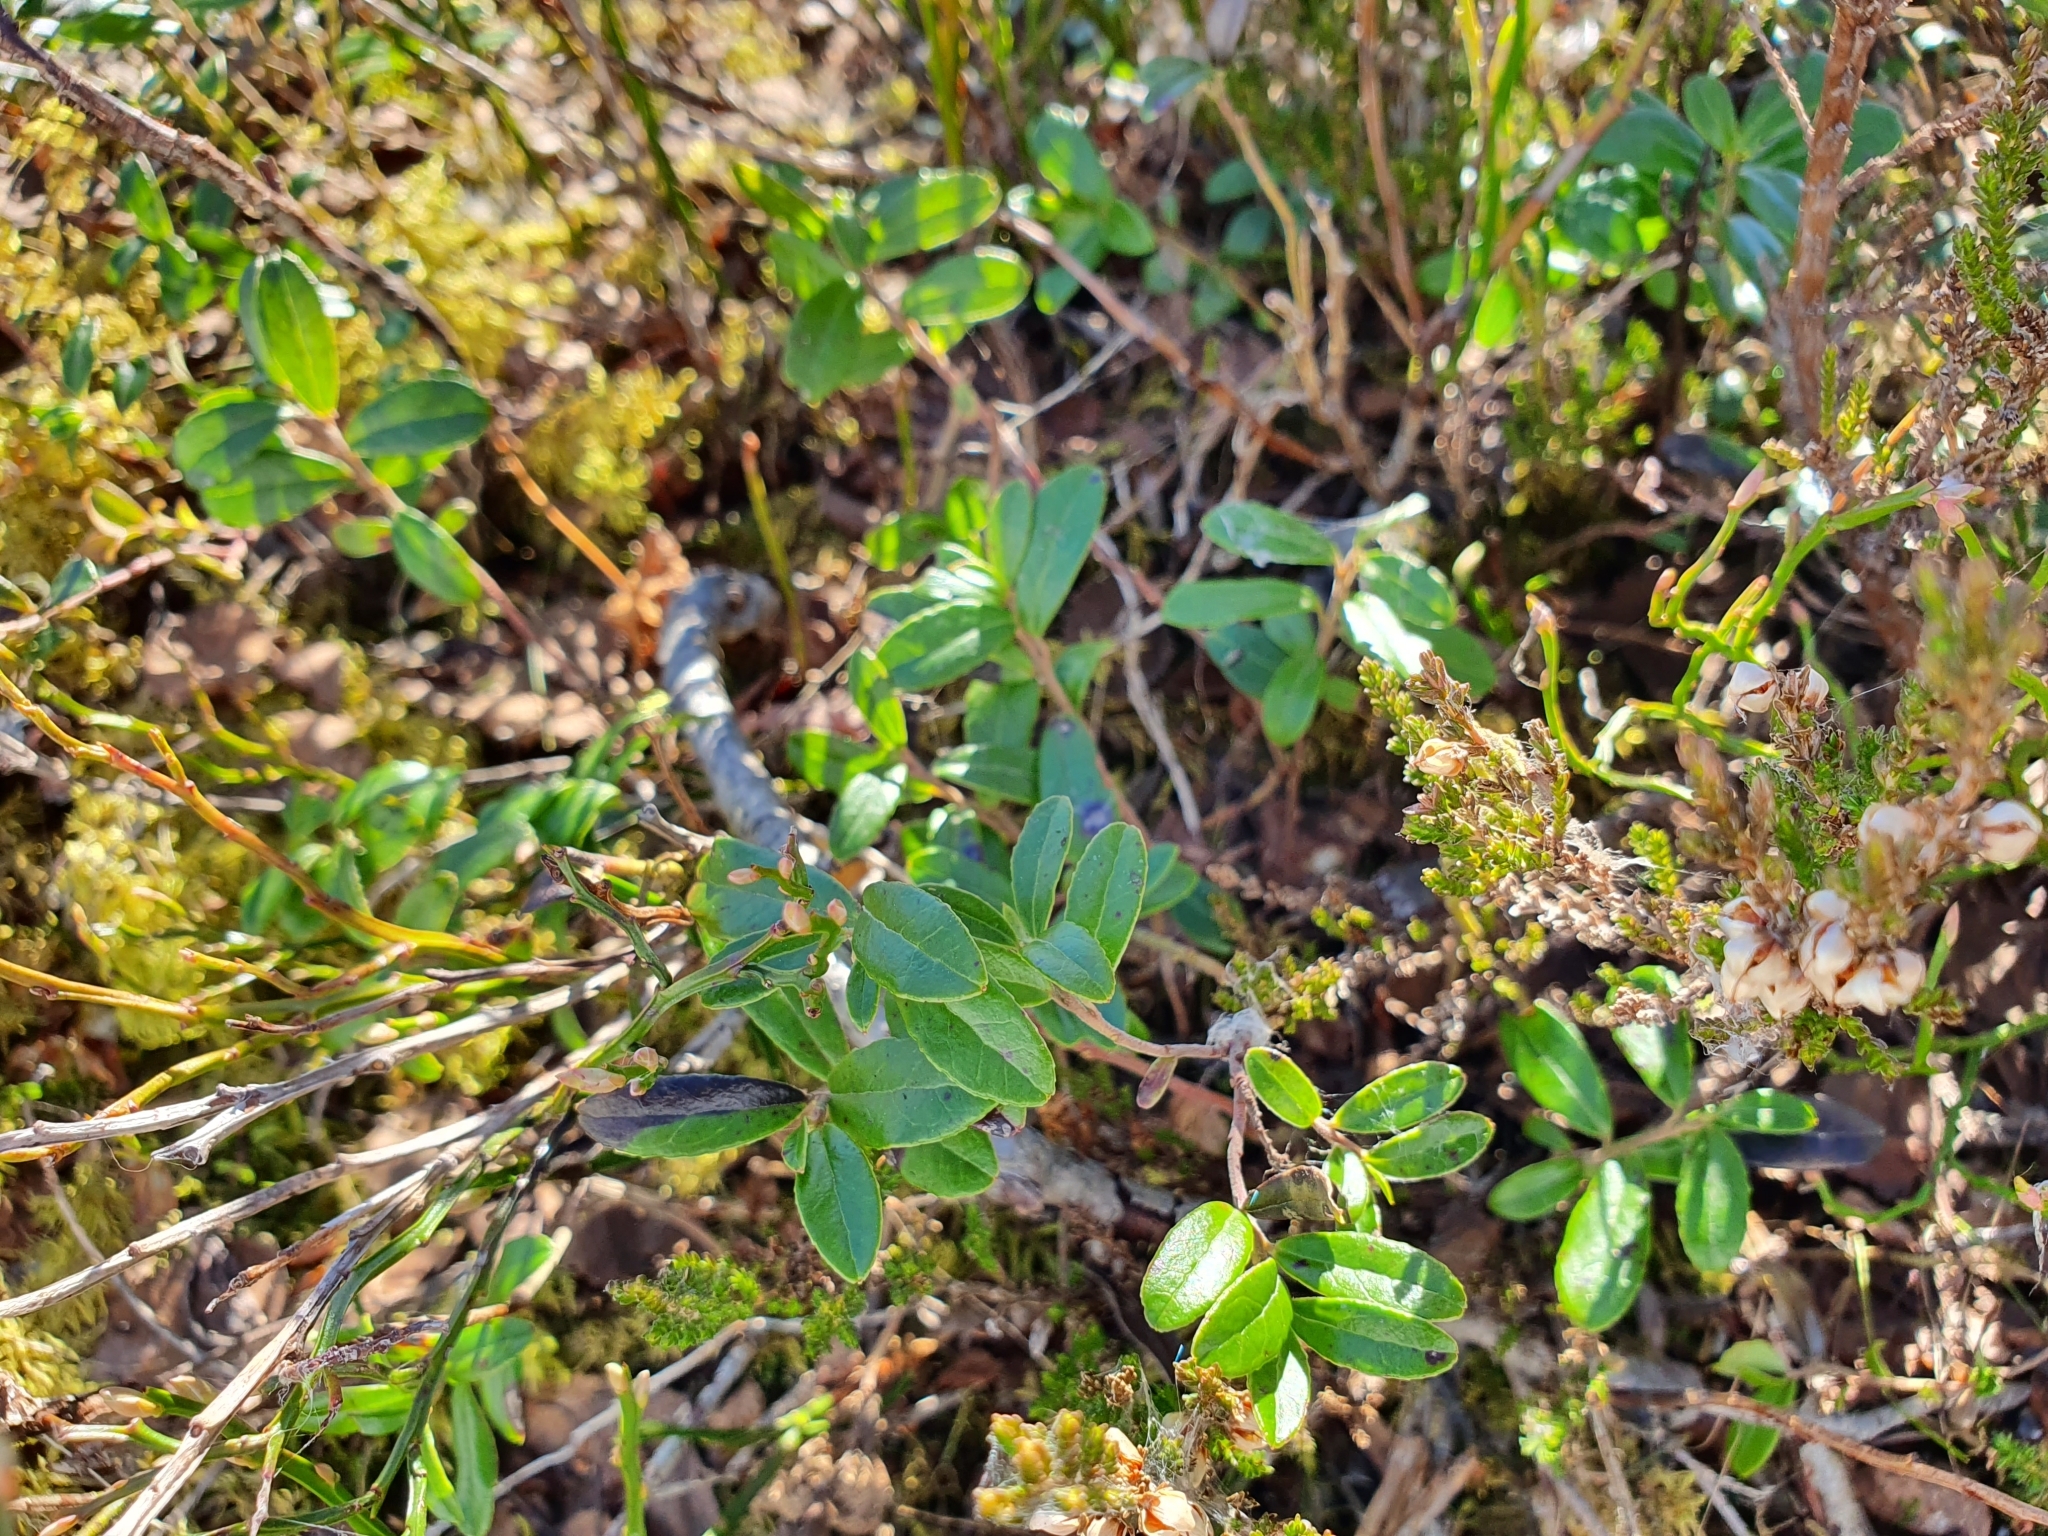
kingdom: Plantae
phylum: Tracheophyta
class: Magnoliopsida
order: Ericales
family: Ericaceae
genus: Vaccinium
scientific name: Vaccinium vitis-idaea
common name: Cowberry
